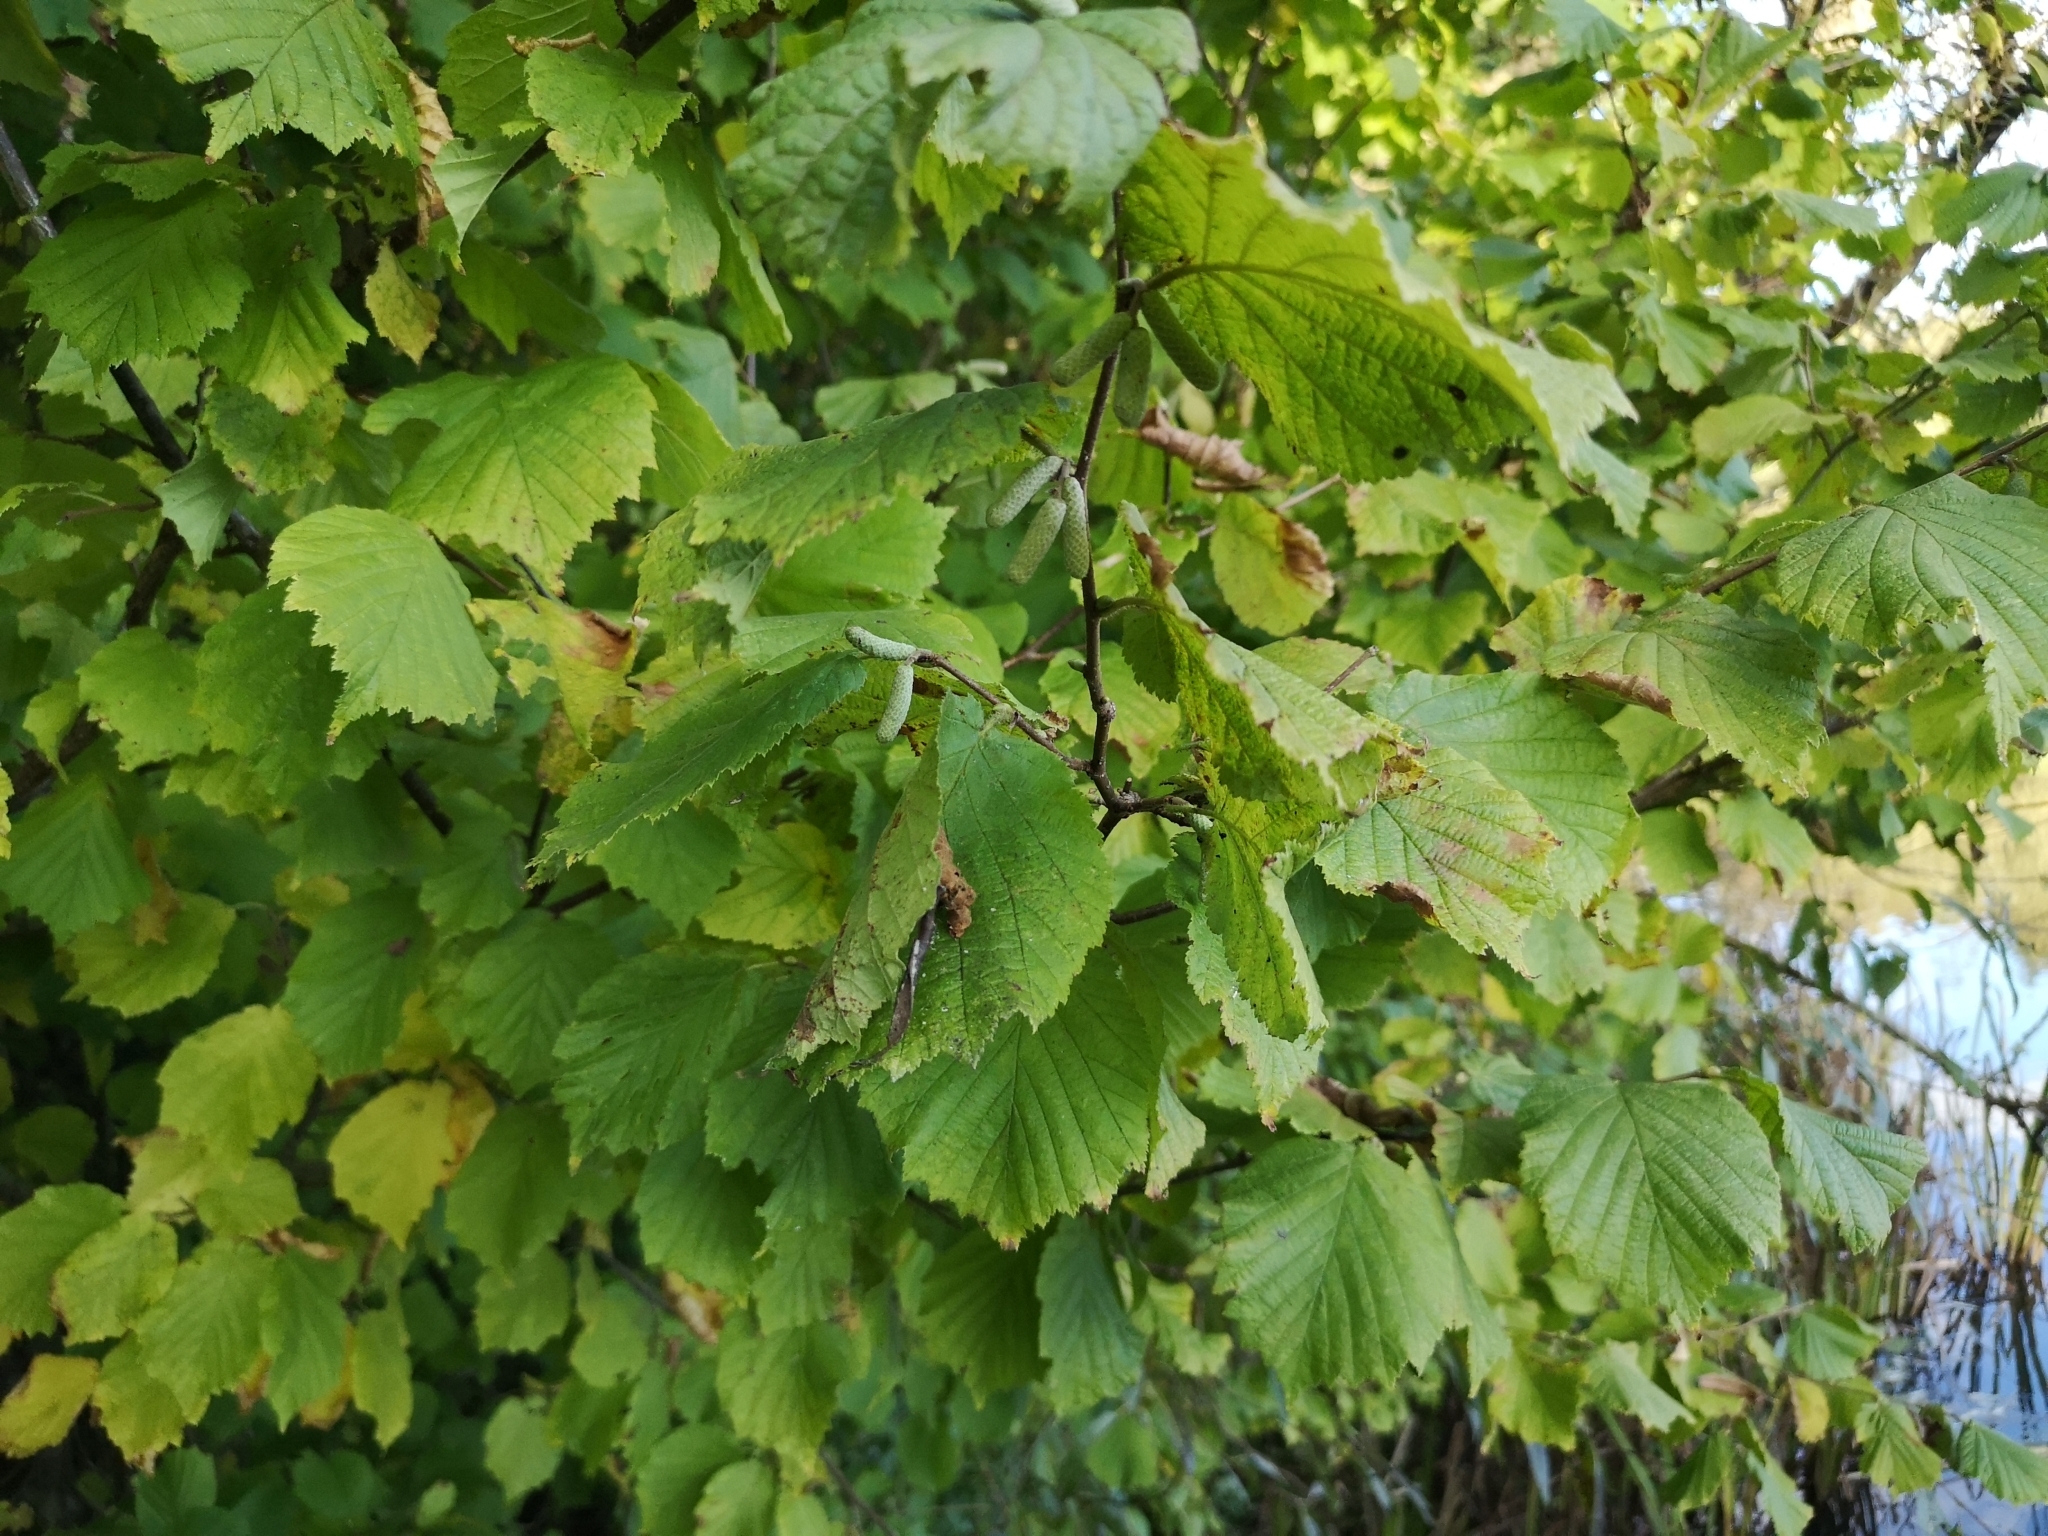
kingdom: Plantae
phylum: Tracheophyta
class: Magnoliopsida
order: Fagales
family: Betulaceae
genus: Corylus
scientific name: Corylus avellana
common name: European hazel
